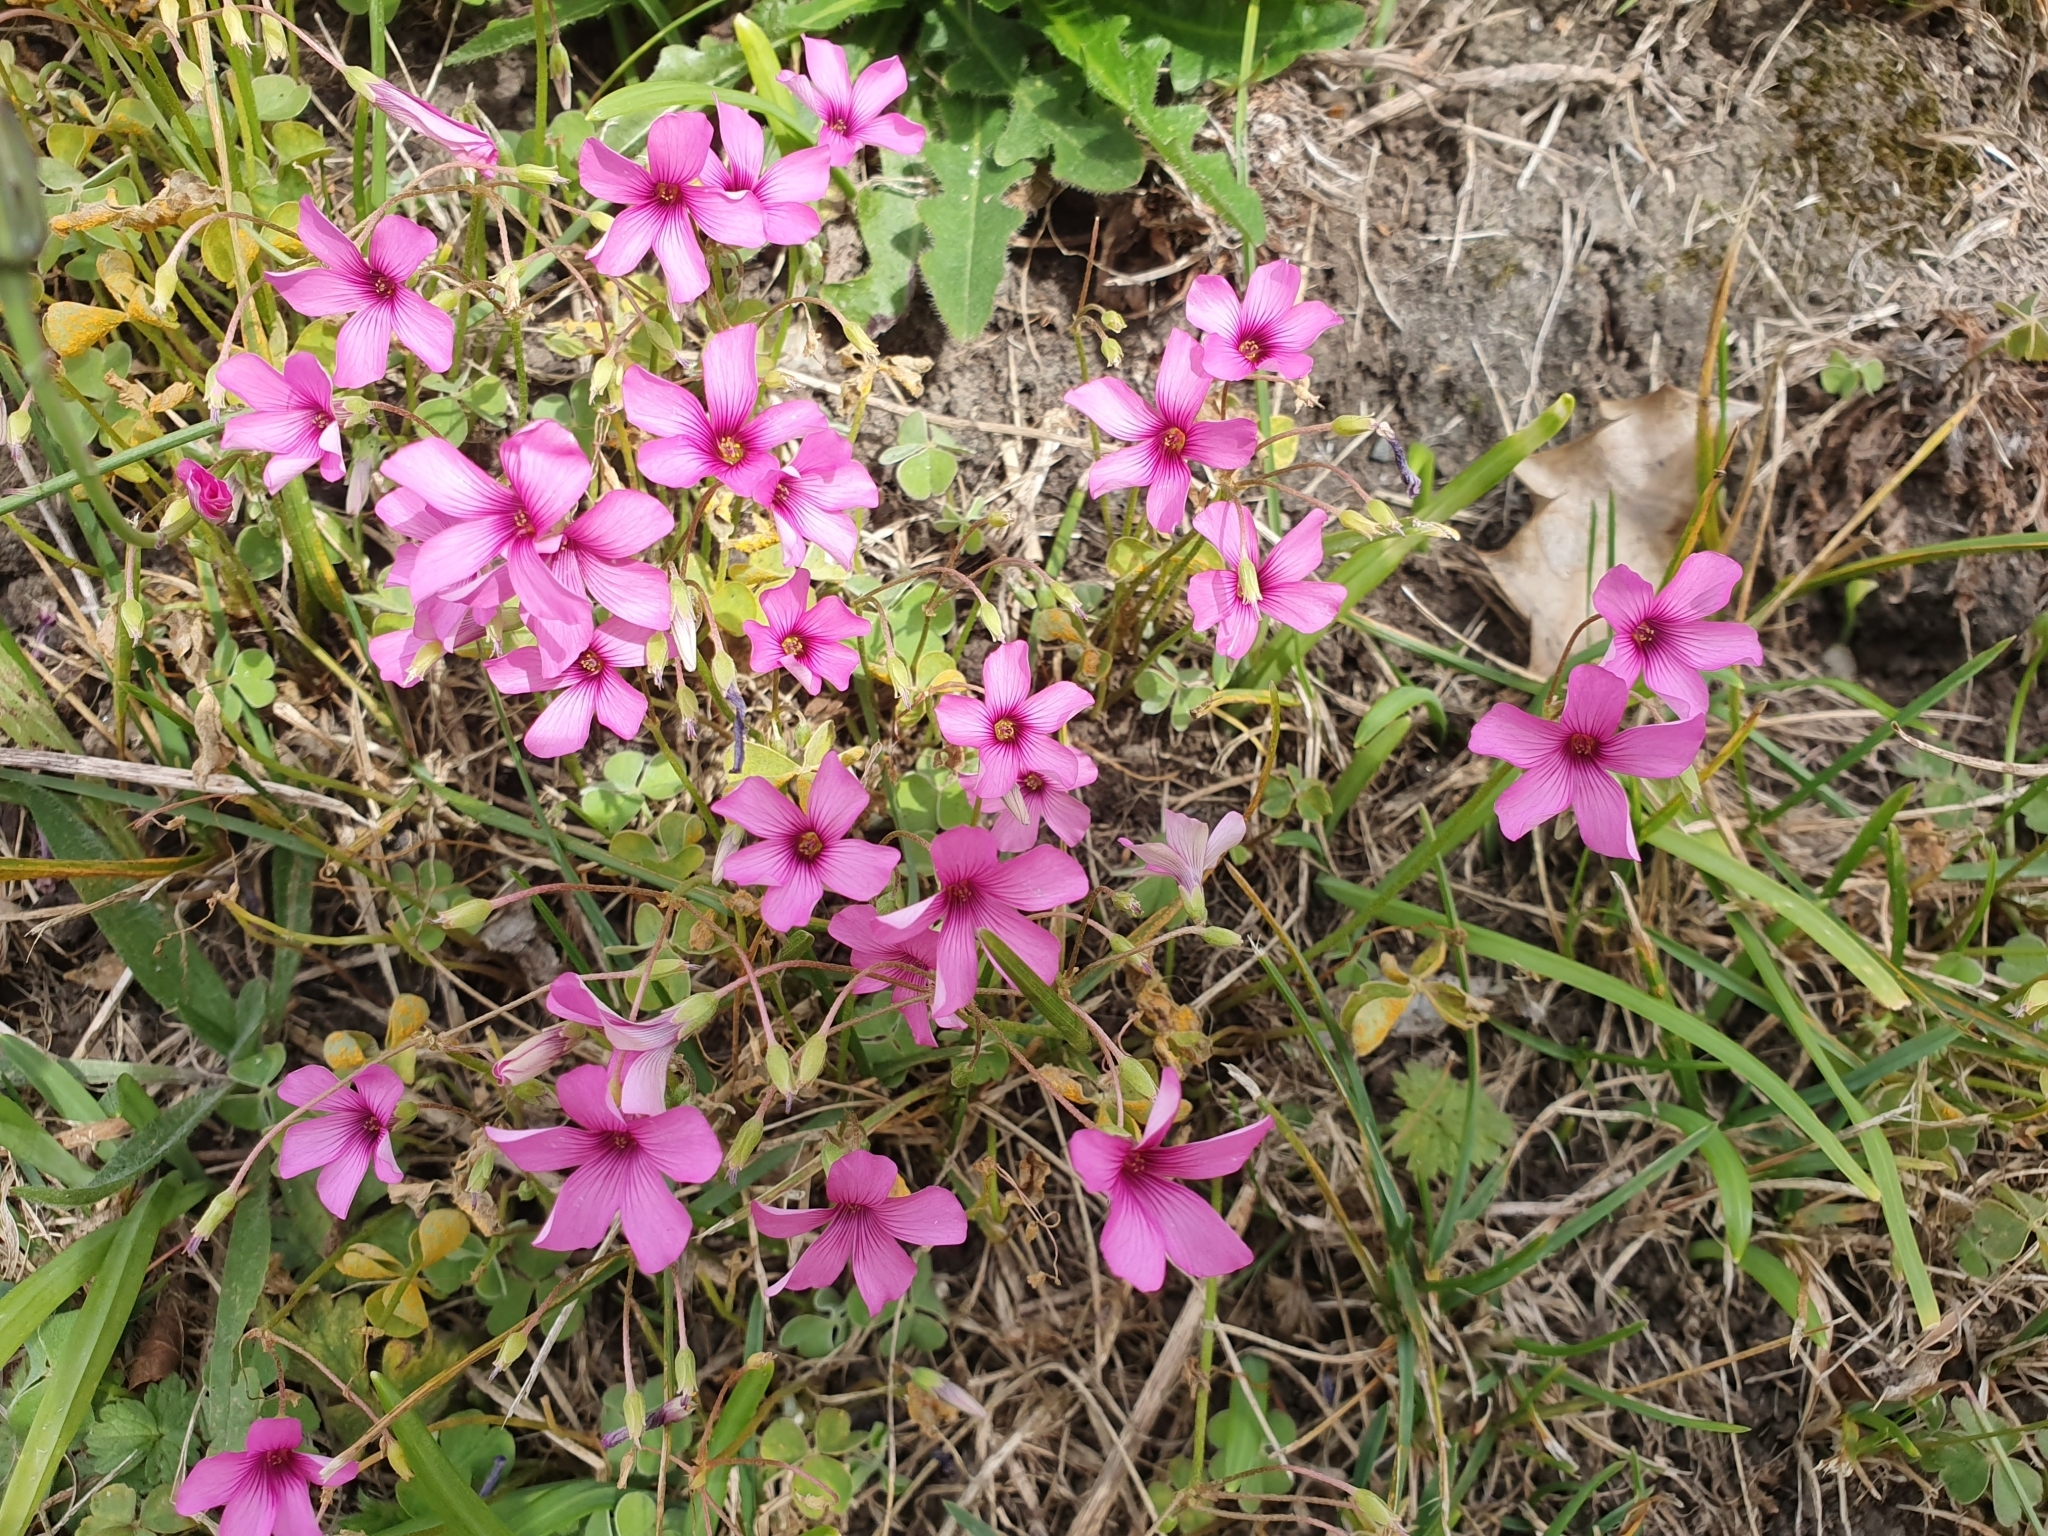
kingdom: Plantae
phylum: Tracheophyta
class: Magnoliopsida
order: Oxalidales
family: Oxalidaceae
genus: Oxalis
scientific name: Oxalis articulata
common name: Pink-sorrel
